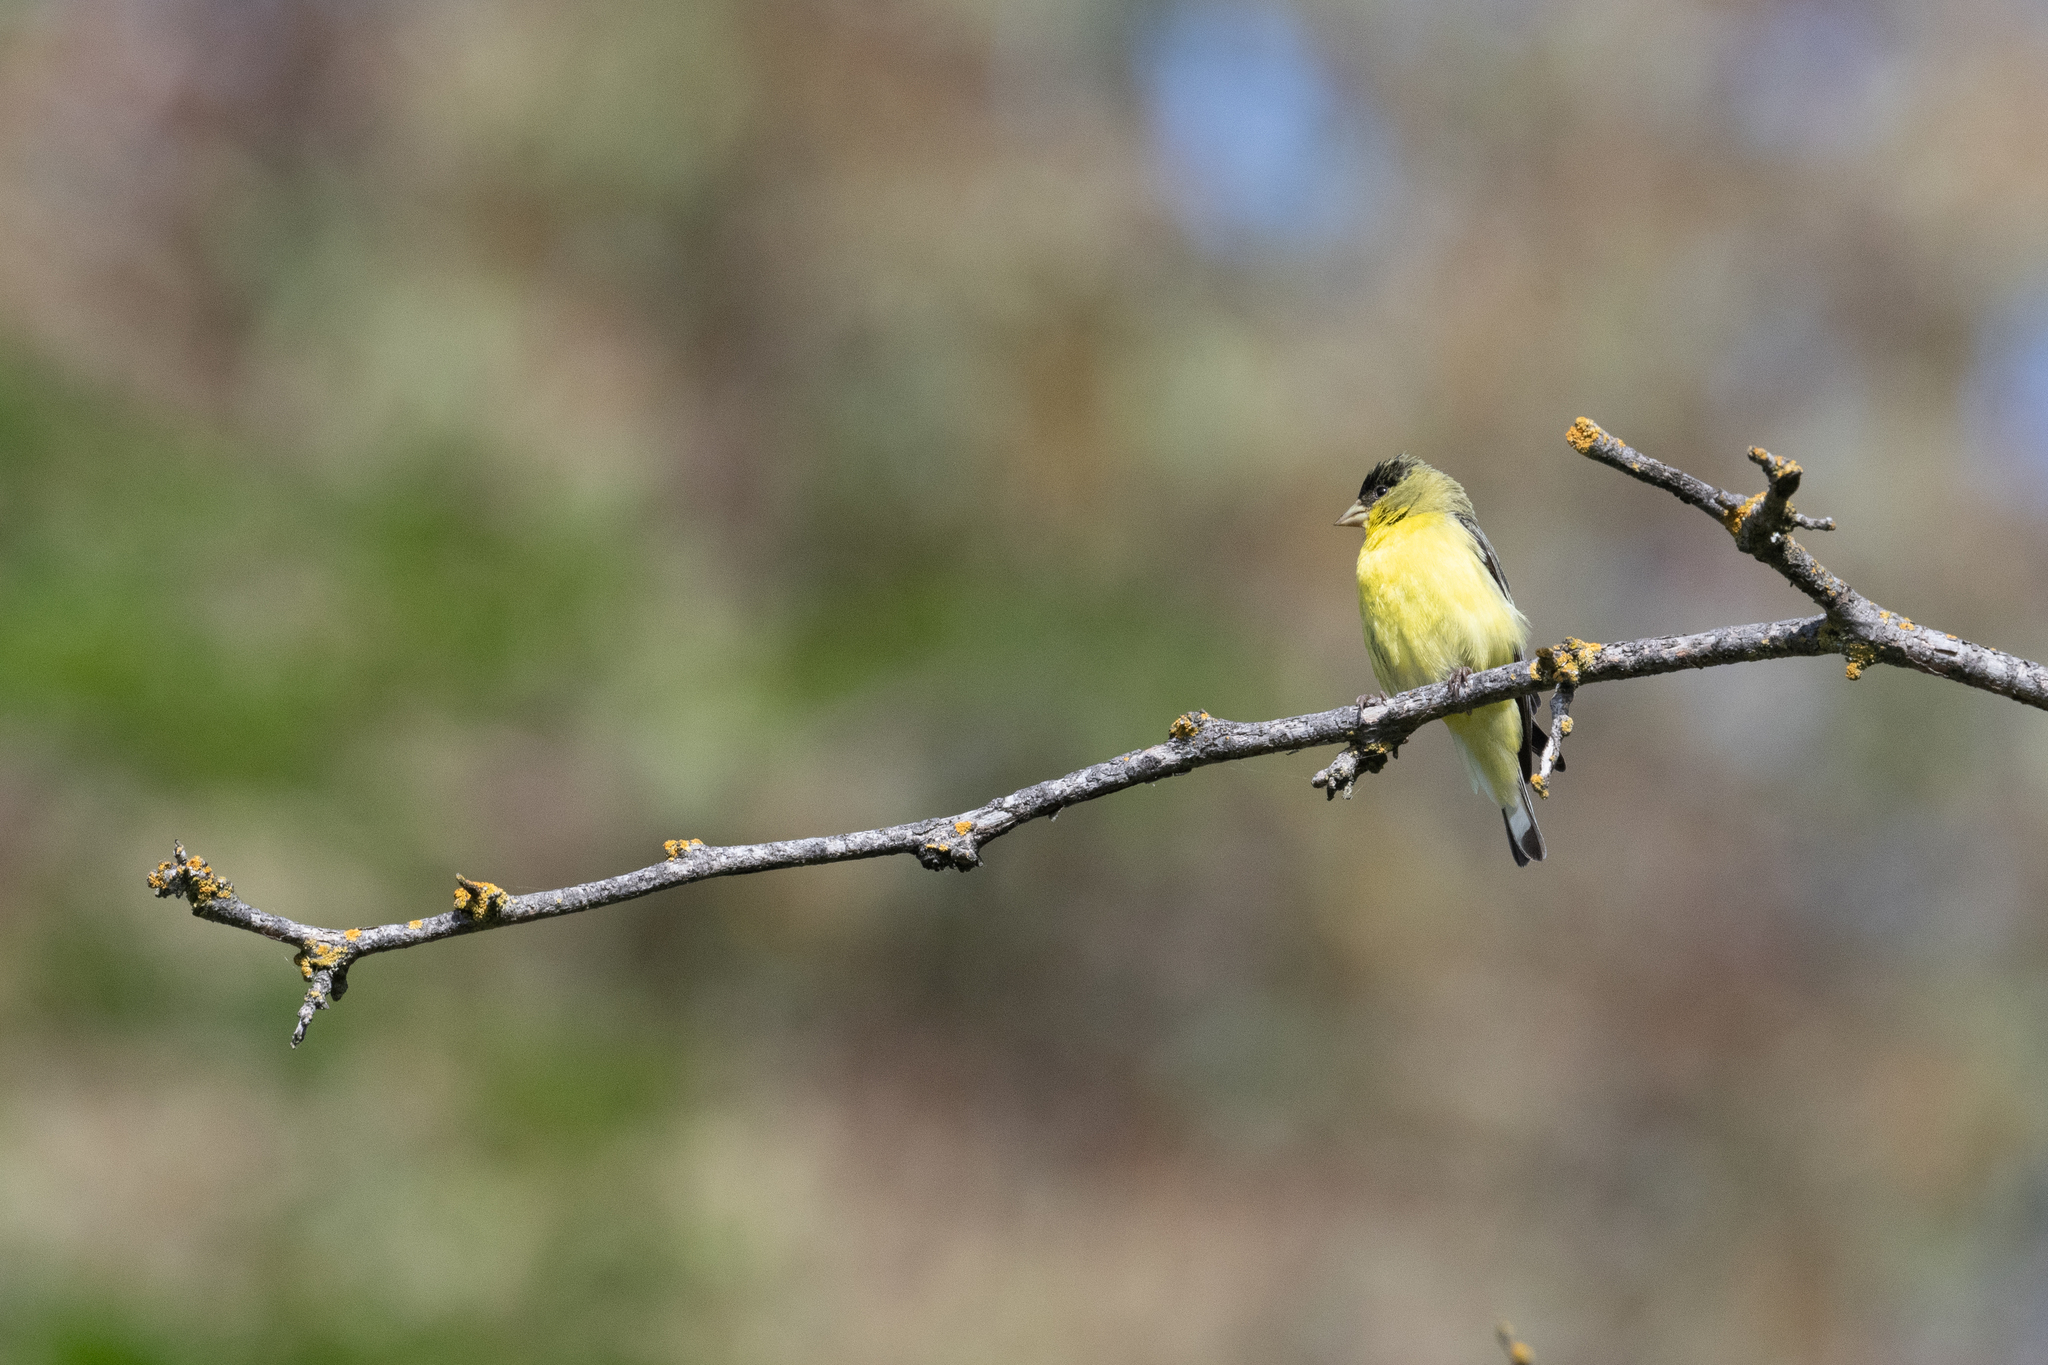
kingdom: Animalia
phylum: Chordata
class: Aves
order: Passeriformes
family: Fringillidae
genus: Spinus
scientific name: Spinus psaltria
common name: Lesser goldfinch
